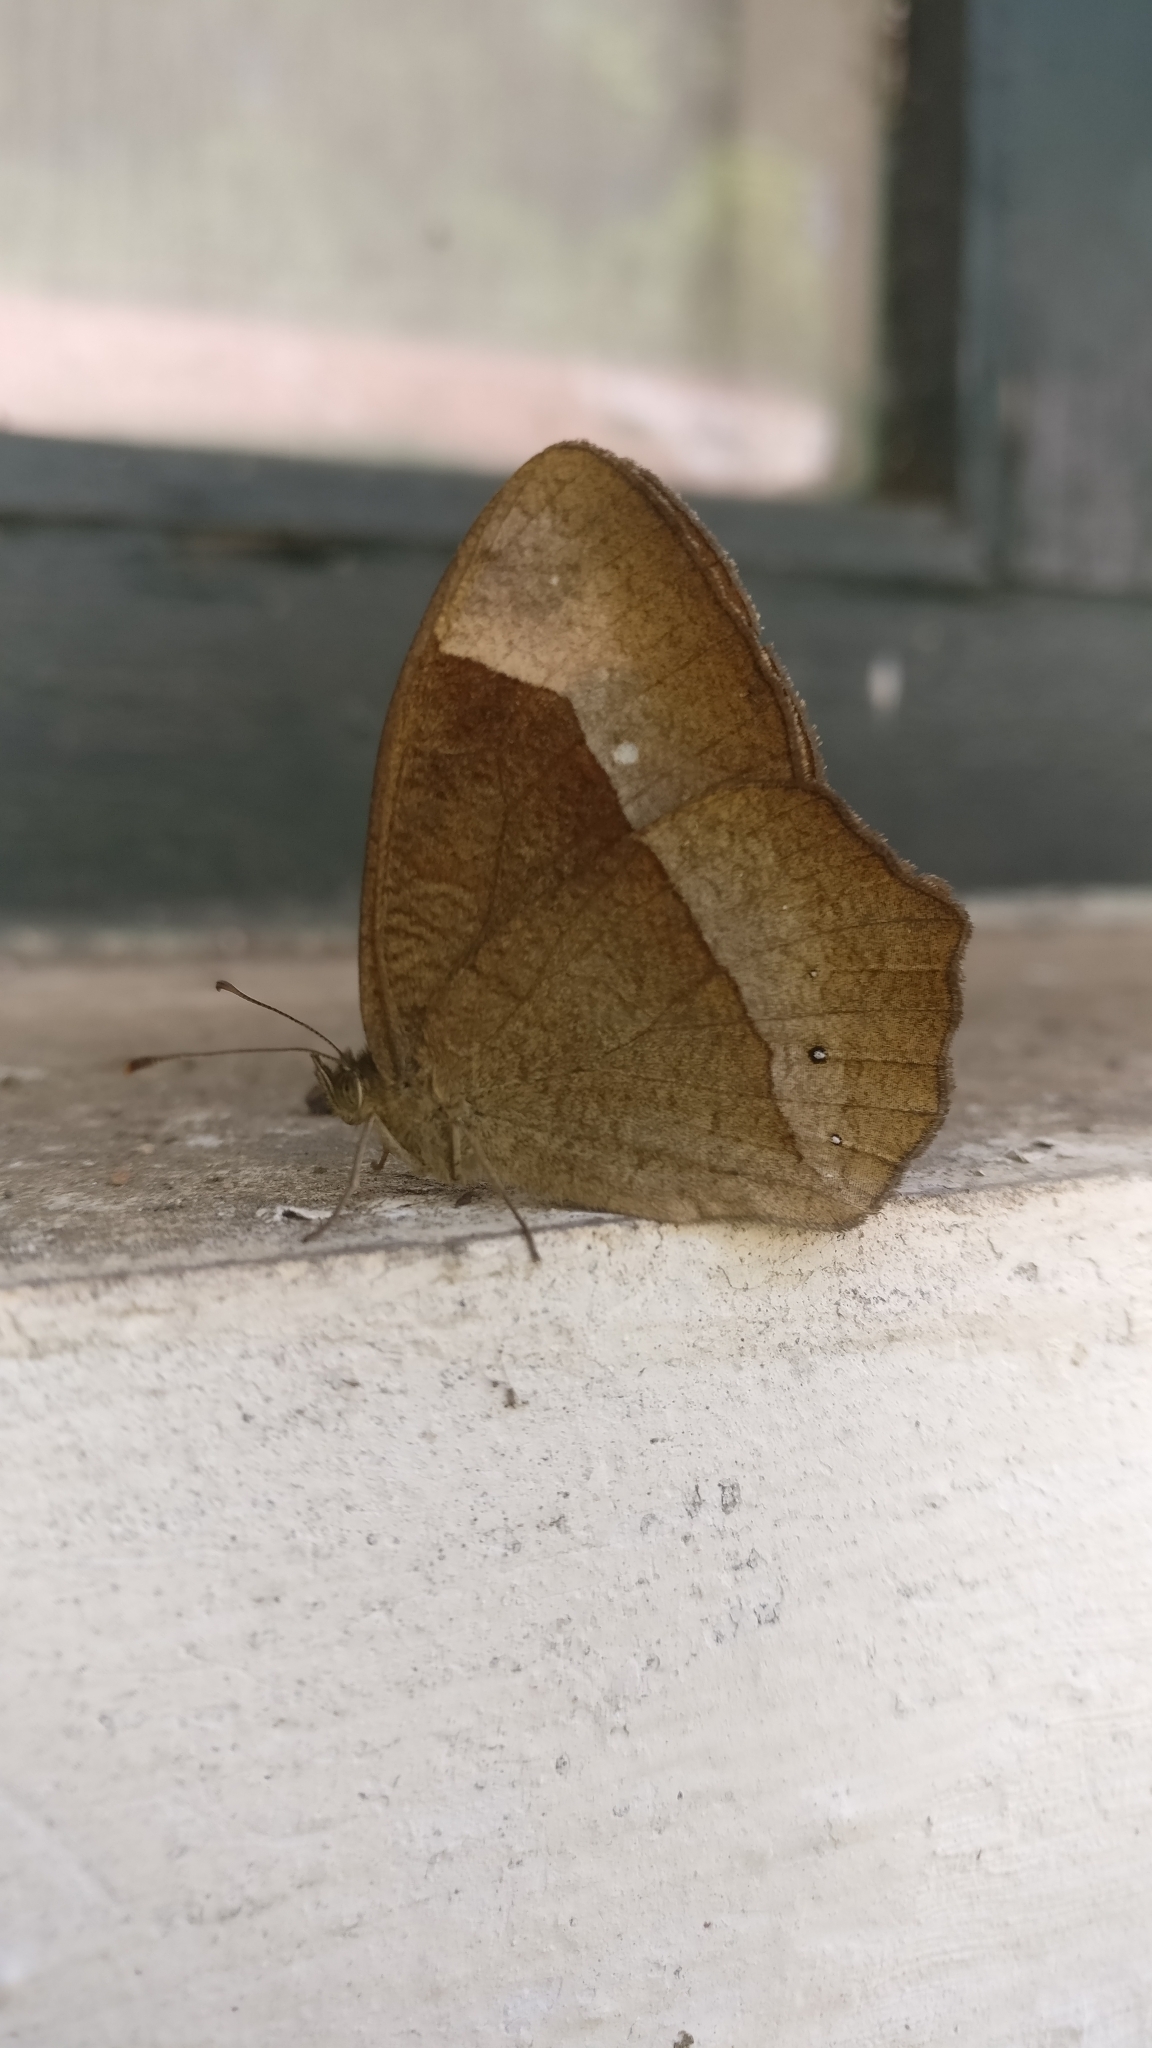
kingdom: Animalia
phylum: Arthropoda
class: Insecta
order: Lepidoptera
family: Nymphalidae
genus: Mycalesis
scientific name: Mycalesis Telinga oculus
